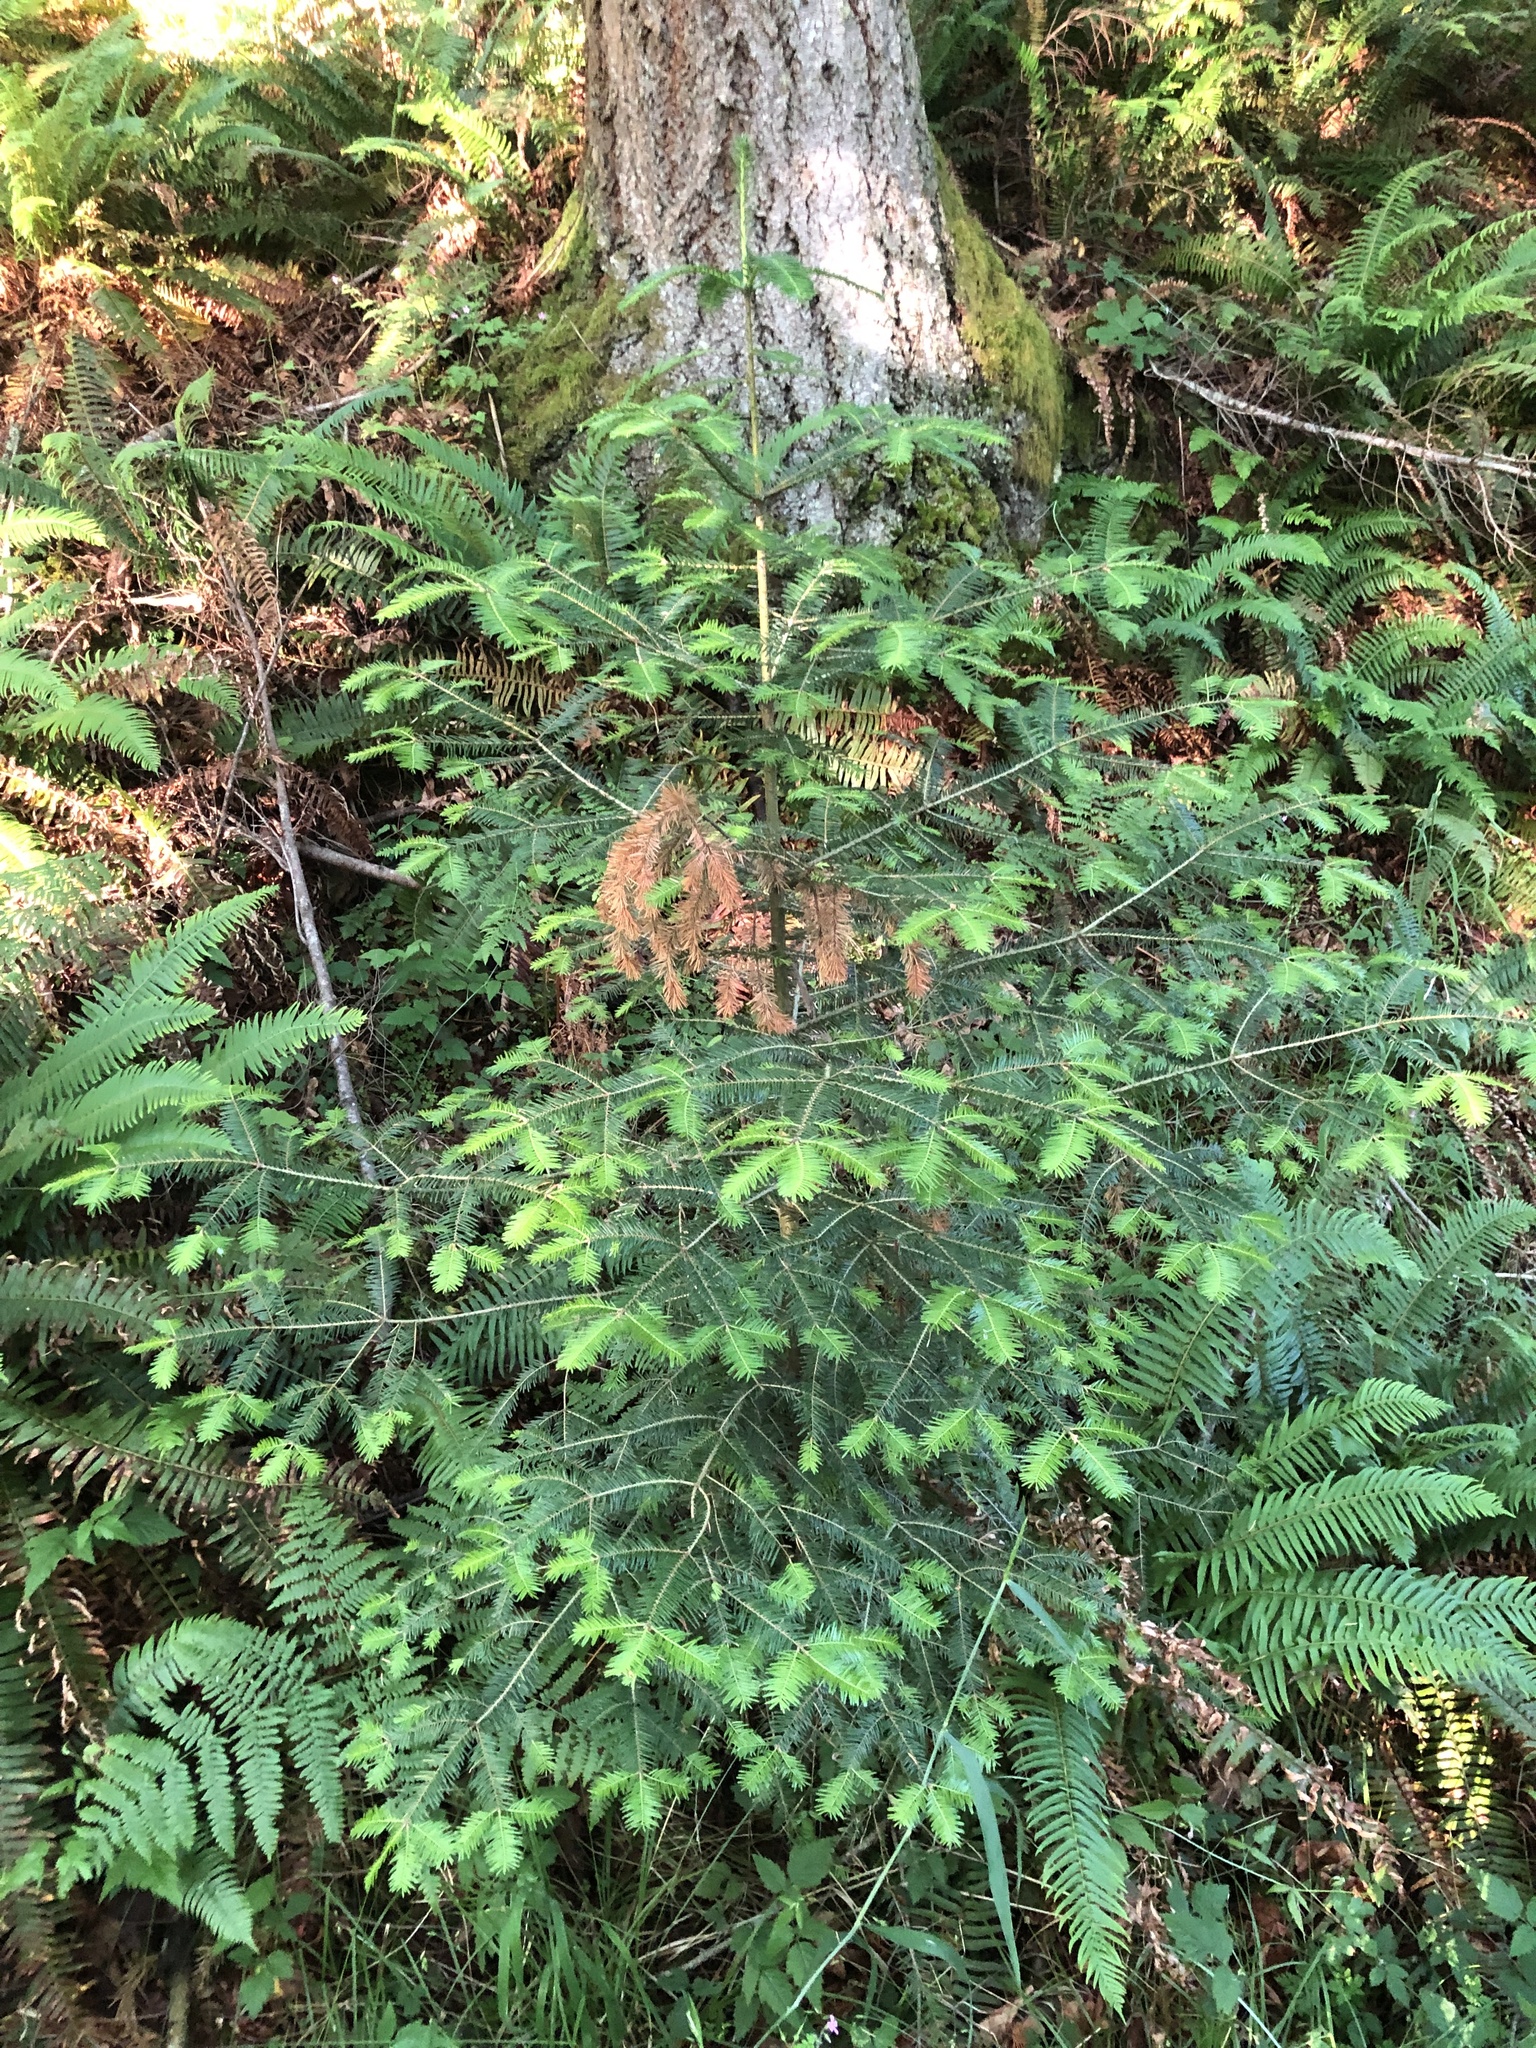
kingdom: Plantae
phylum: Tracheophyta
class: Pinopsida
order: Pinales
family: Pinaceae
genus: Abies
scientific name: Abies grandis
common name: Giant fir
